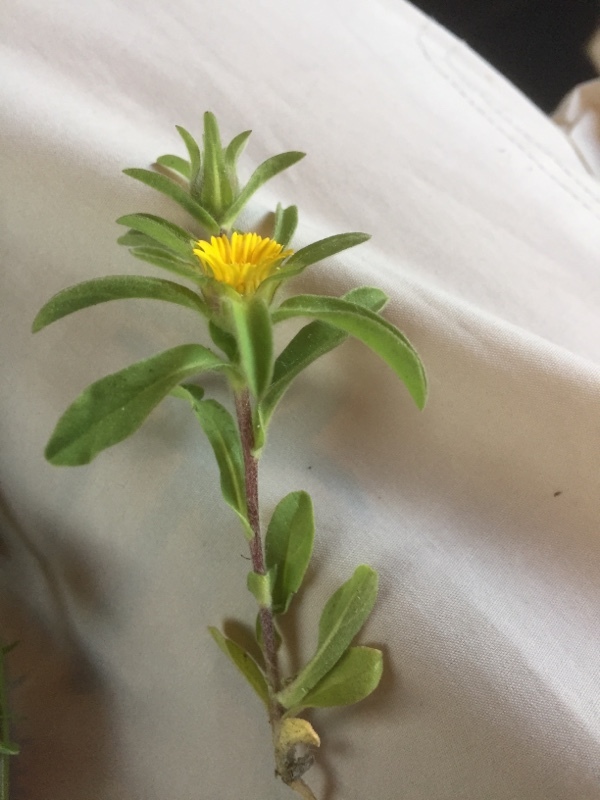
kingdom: Plantae
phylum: Tracheophyta
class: Magnoliopsida
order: Asterales
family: Asteraceae
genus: Asteriscus
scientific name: Asteriscus aquaticus
